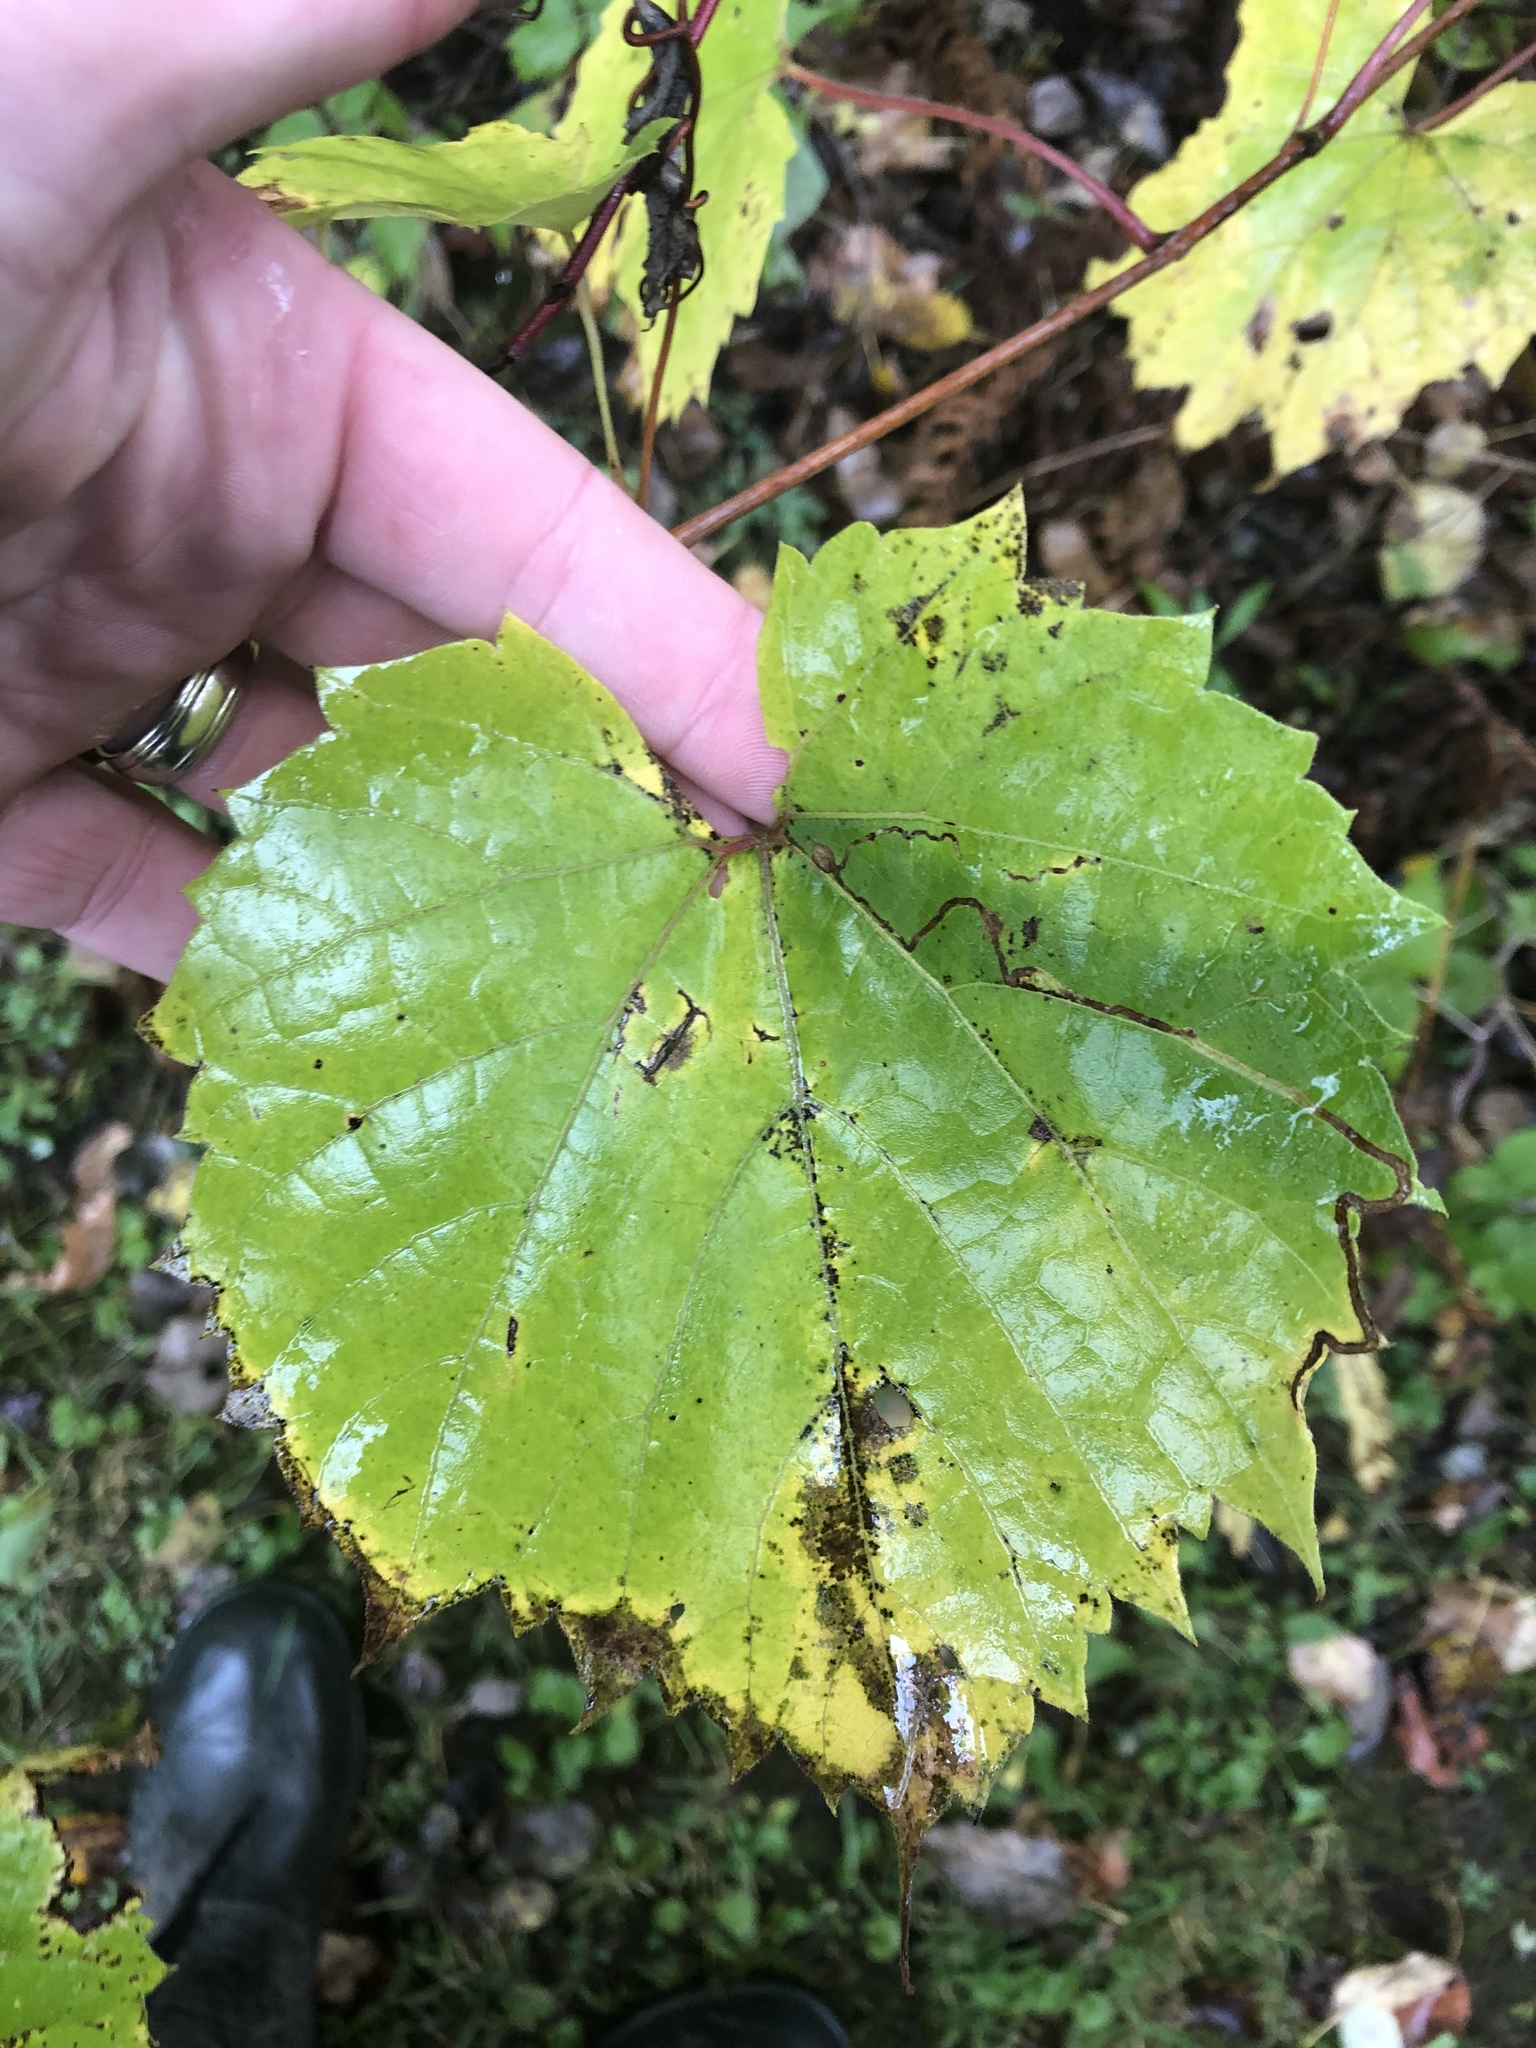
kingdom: Animalia
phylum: Arthropoda
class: Insecta
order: Lepidoptera
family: Gracillariidae
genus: Phyllocnistis
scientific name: Phyllocnistis vitifoliella
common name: Grape leaf-miner moth
